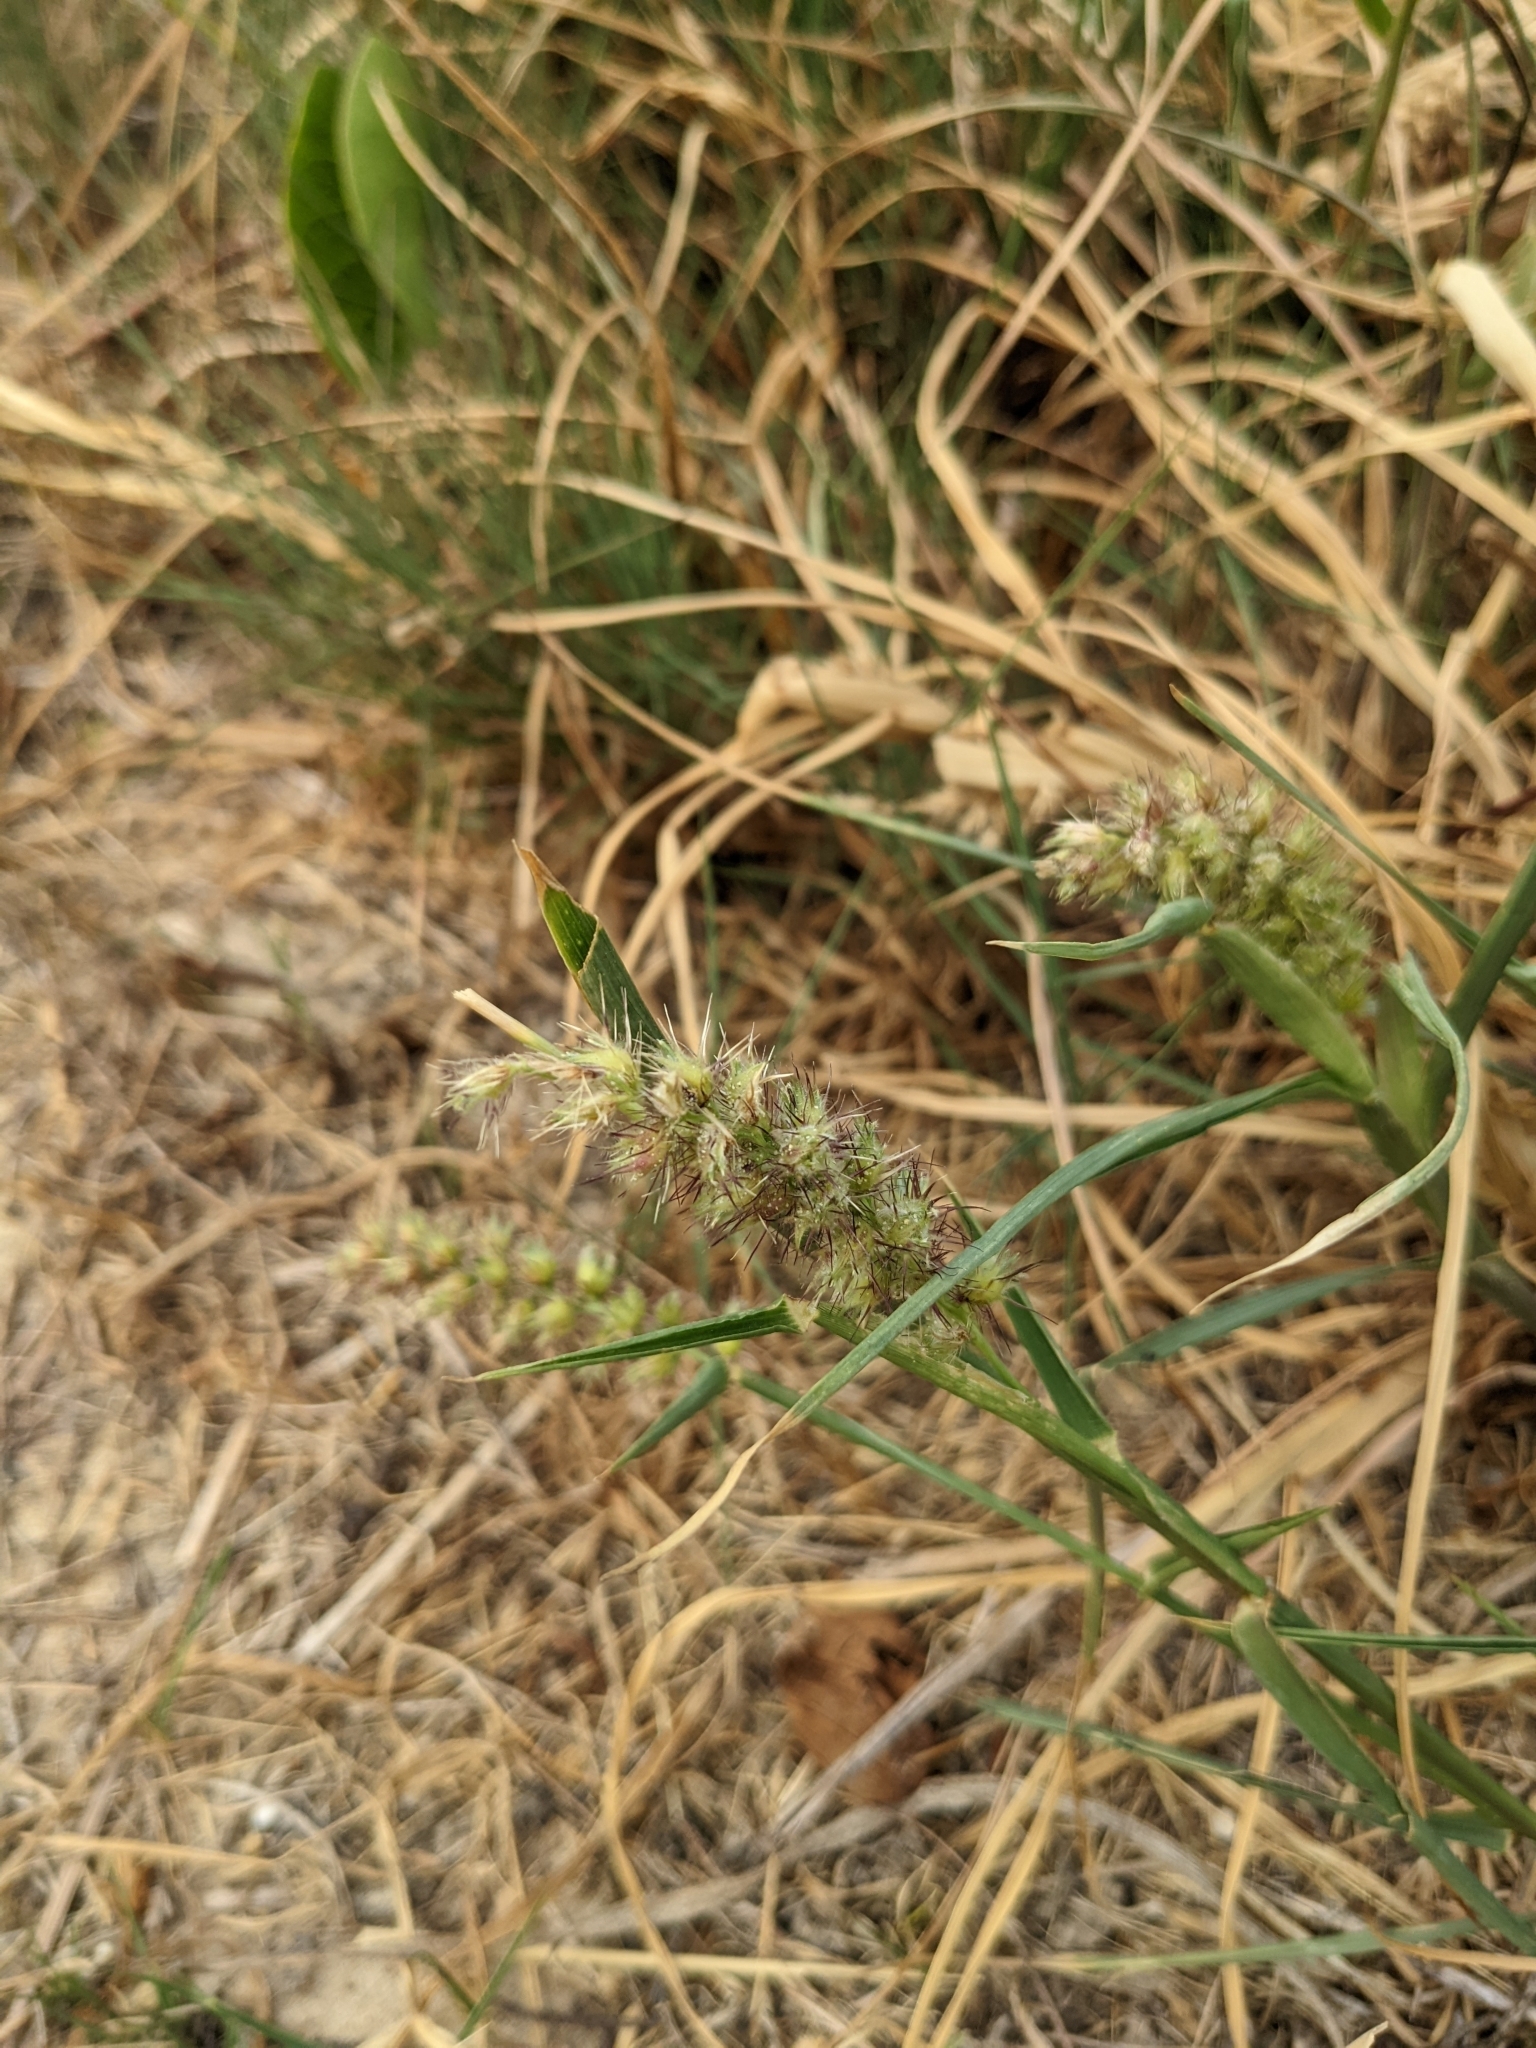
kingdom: Plantae
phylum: Tracheophyta
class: Liliopsida
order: Poales
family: Poaceae
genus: Cenchrus
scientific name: Cenchrus echinatus
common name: Southern sandbur
